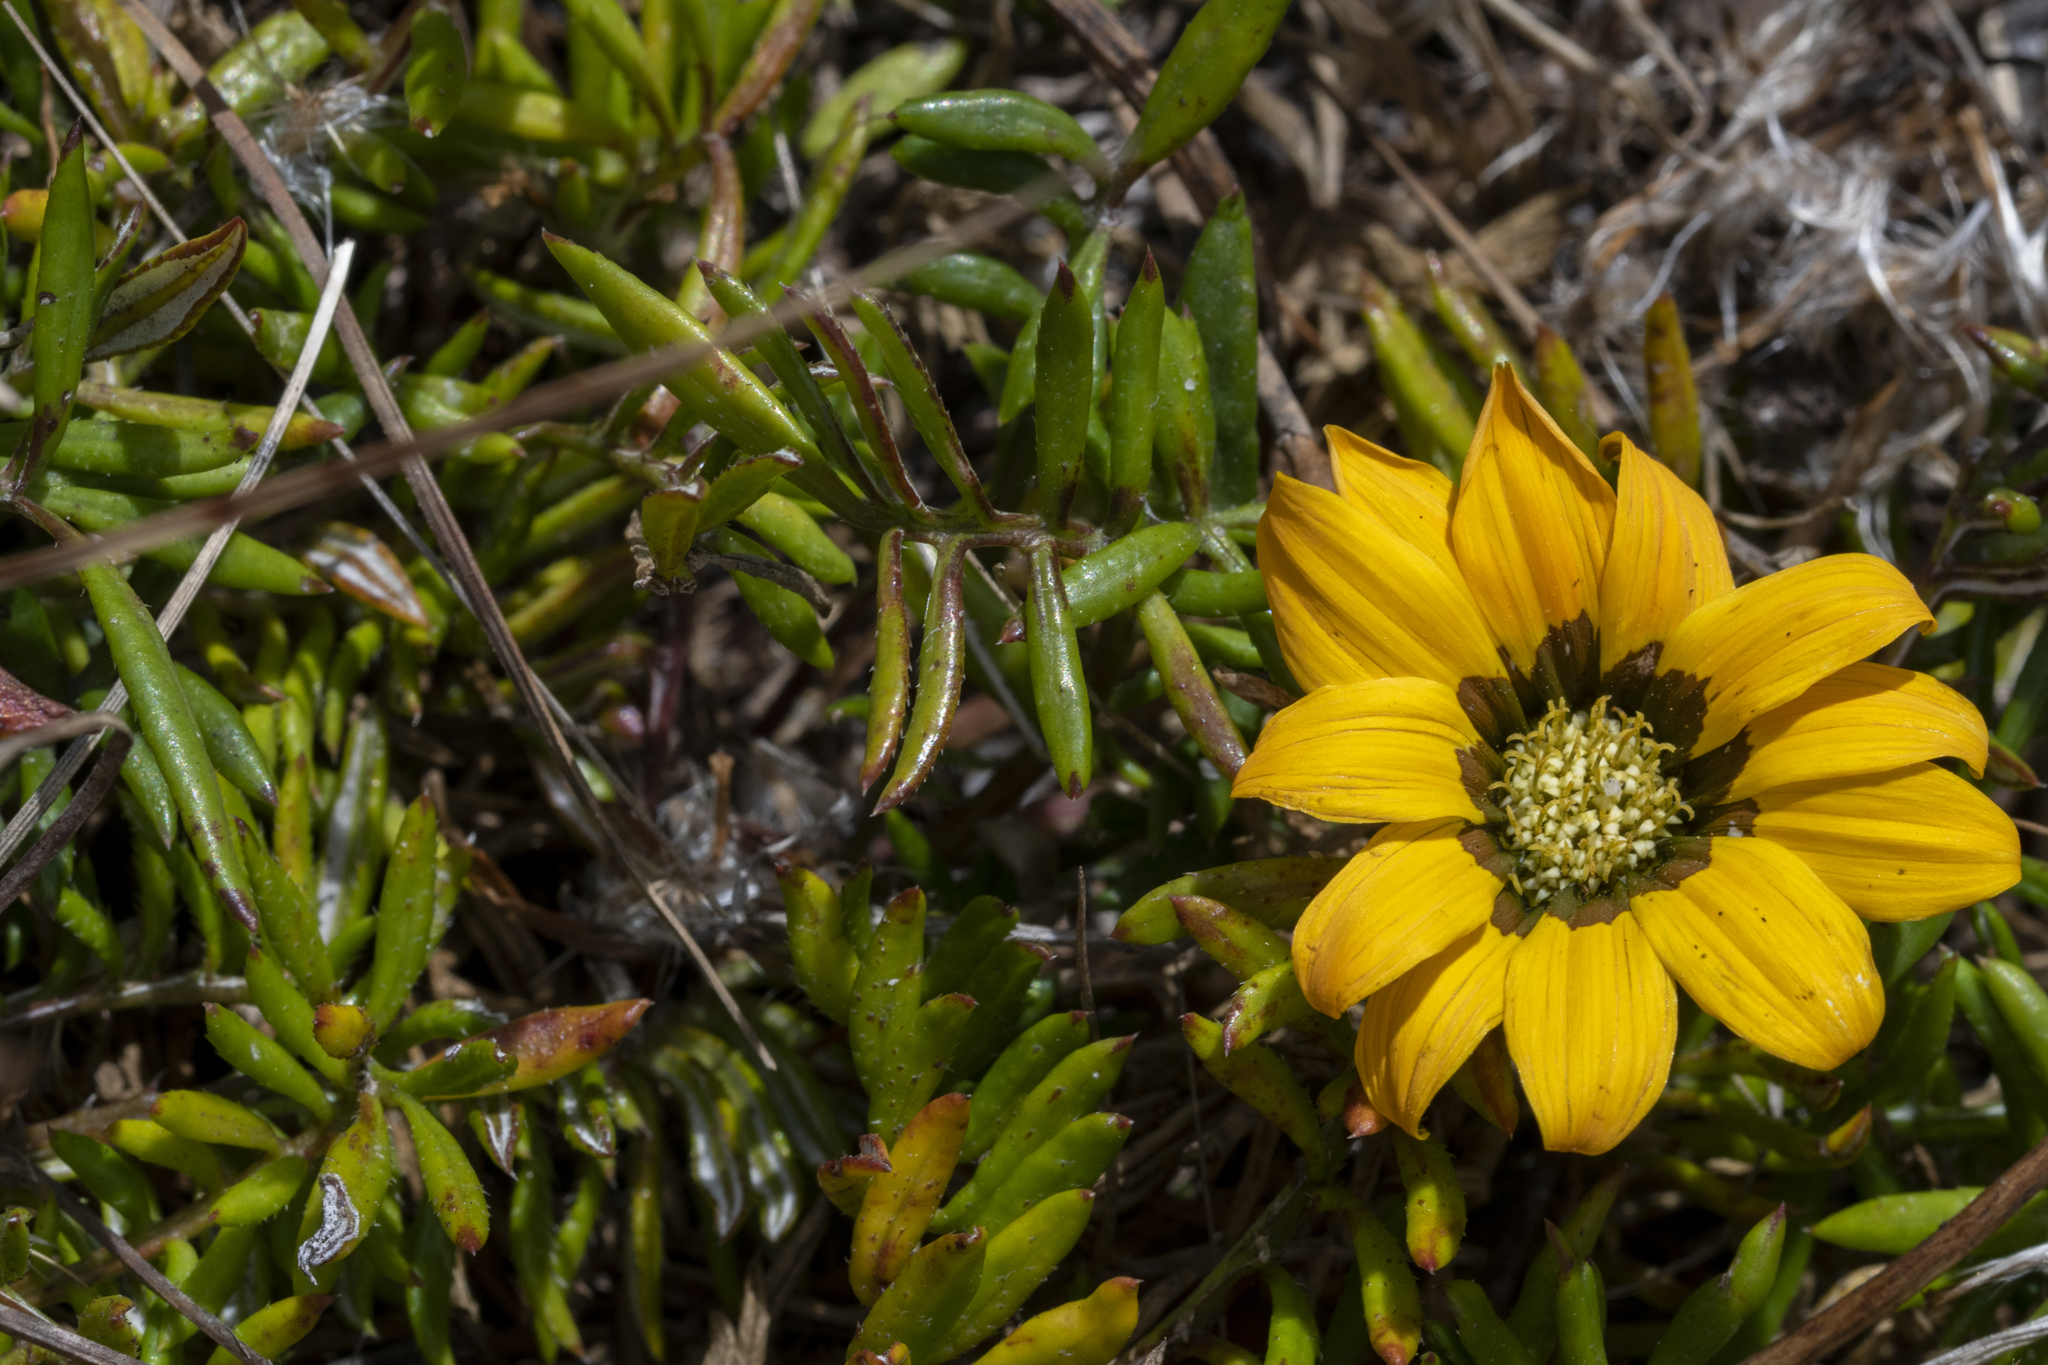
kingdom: Plantae
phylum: Tracheophyta
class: Magnoliopsida
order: Asterales
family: Asteraceae
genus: Gazania
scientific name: Gazania pectinata
